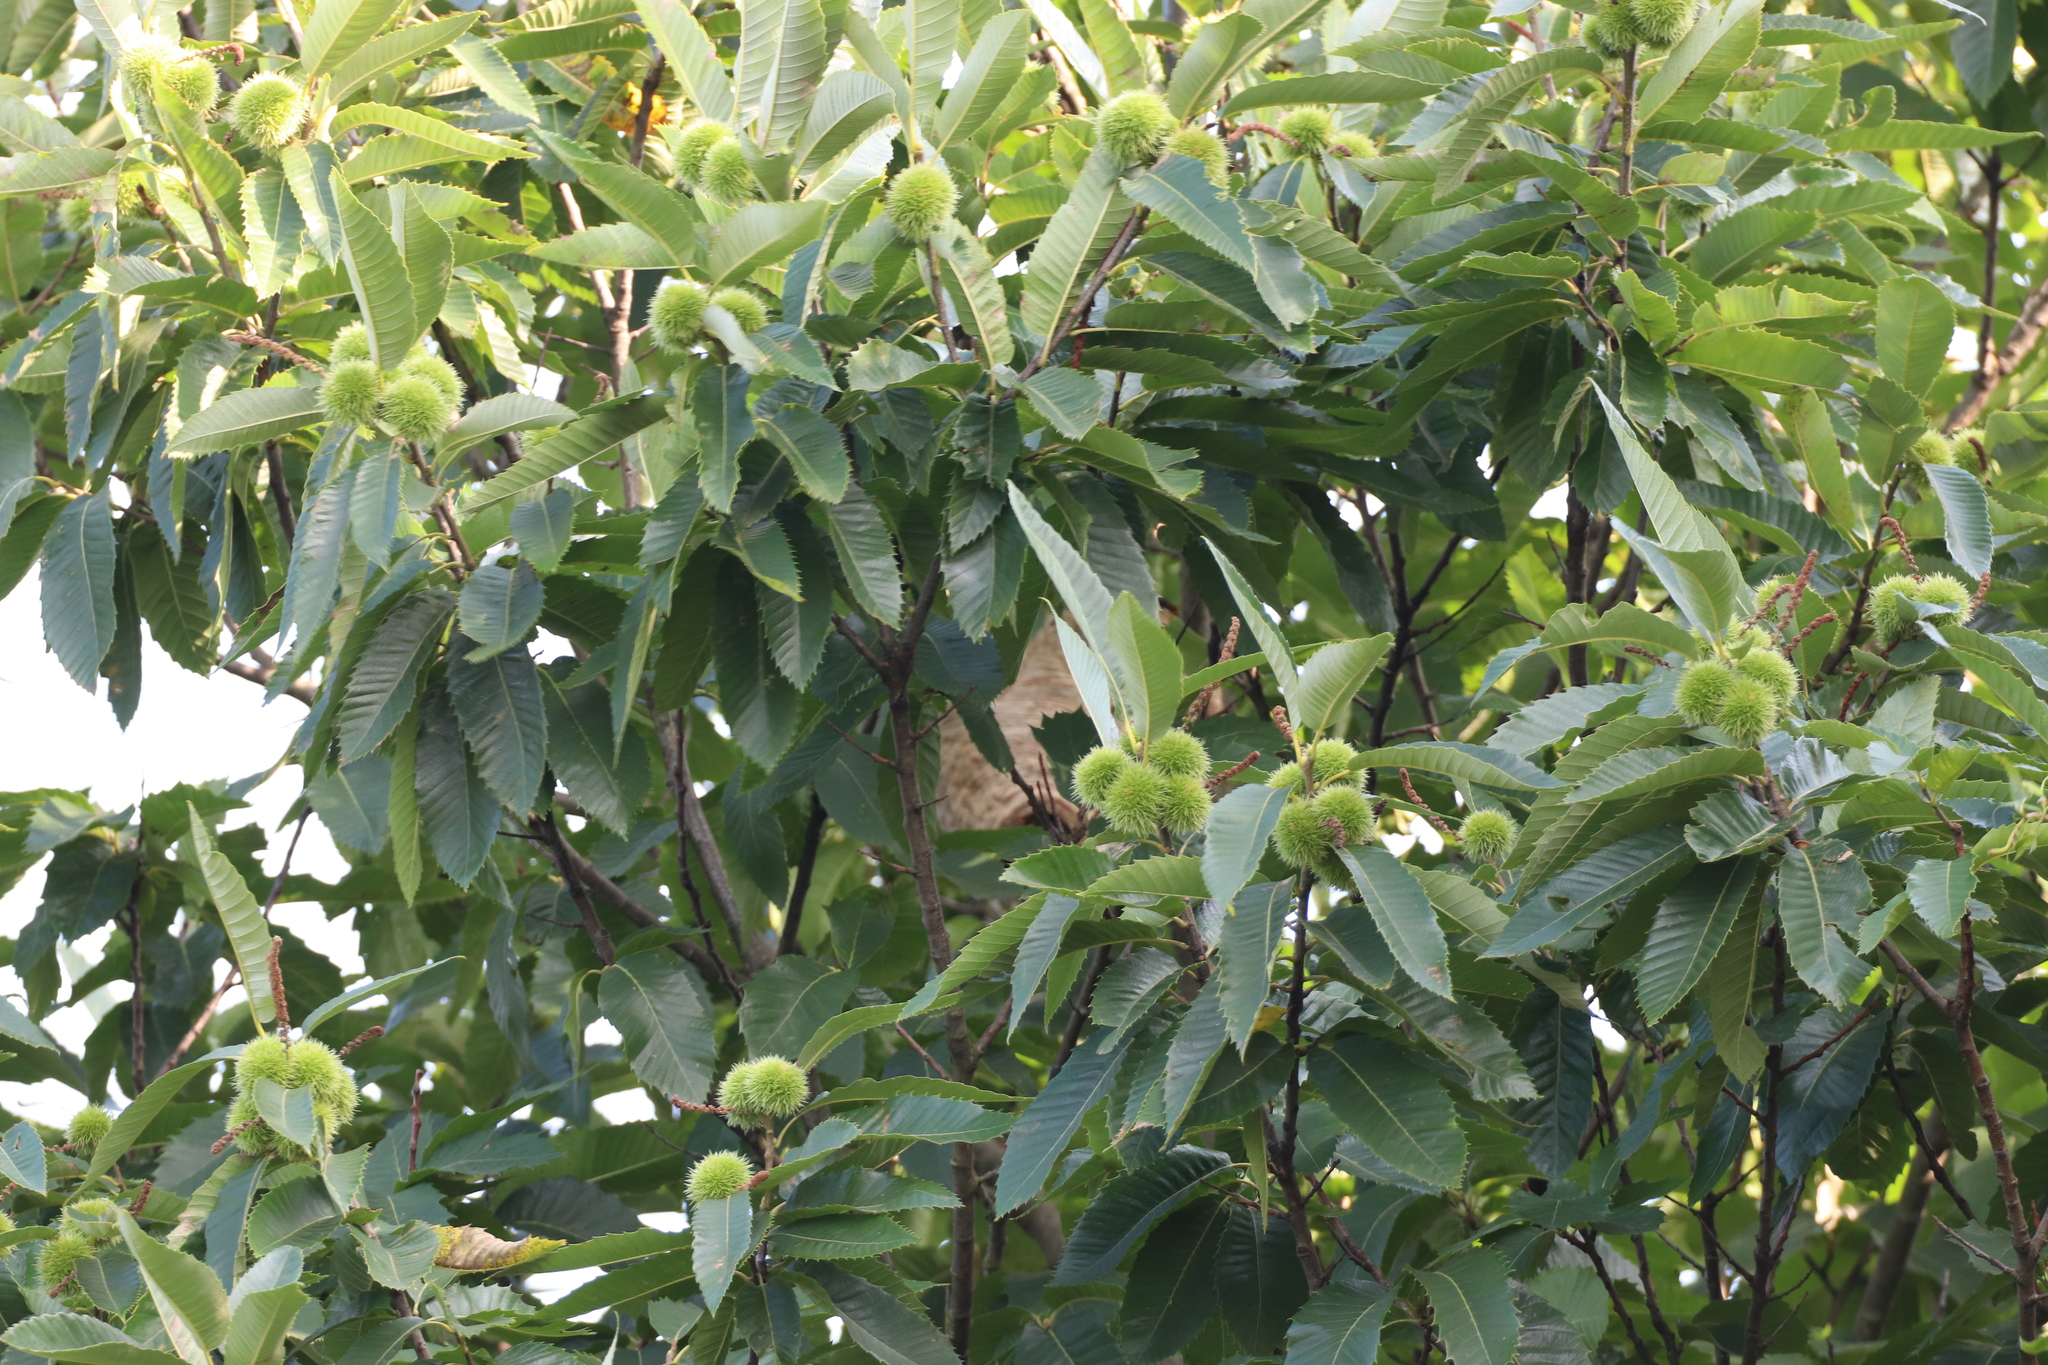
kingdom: Animalia
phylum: Arthropoda
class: Insecta
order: Hymenoptera
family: Vespidae
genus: Vespa
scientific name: Vespa velutina
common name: Asian hornet
